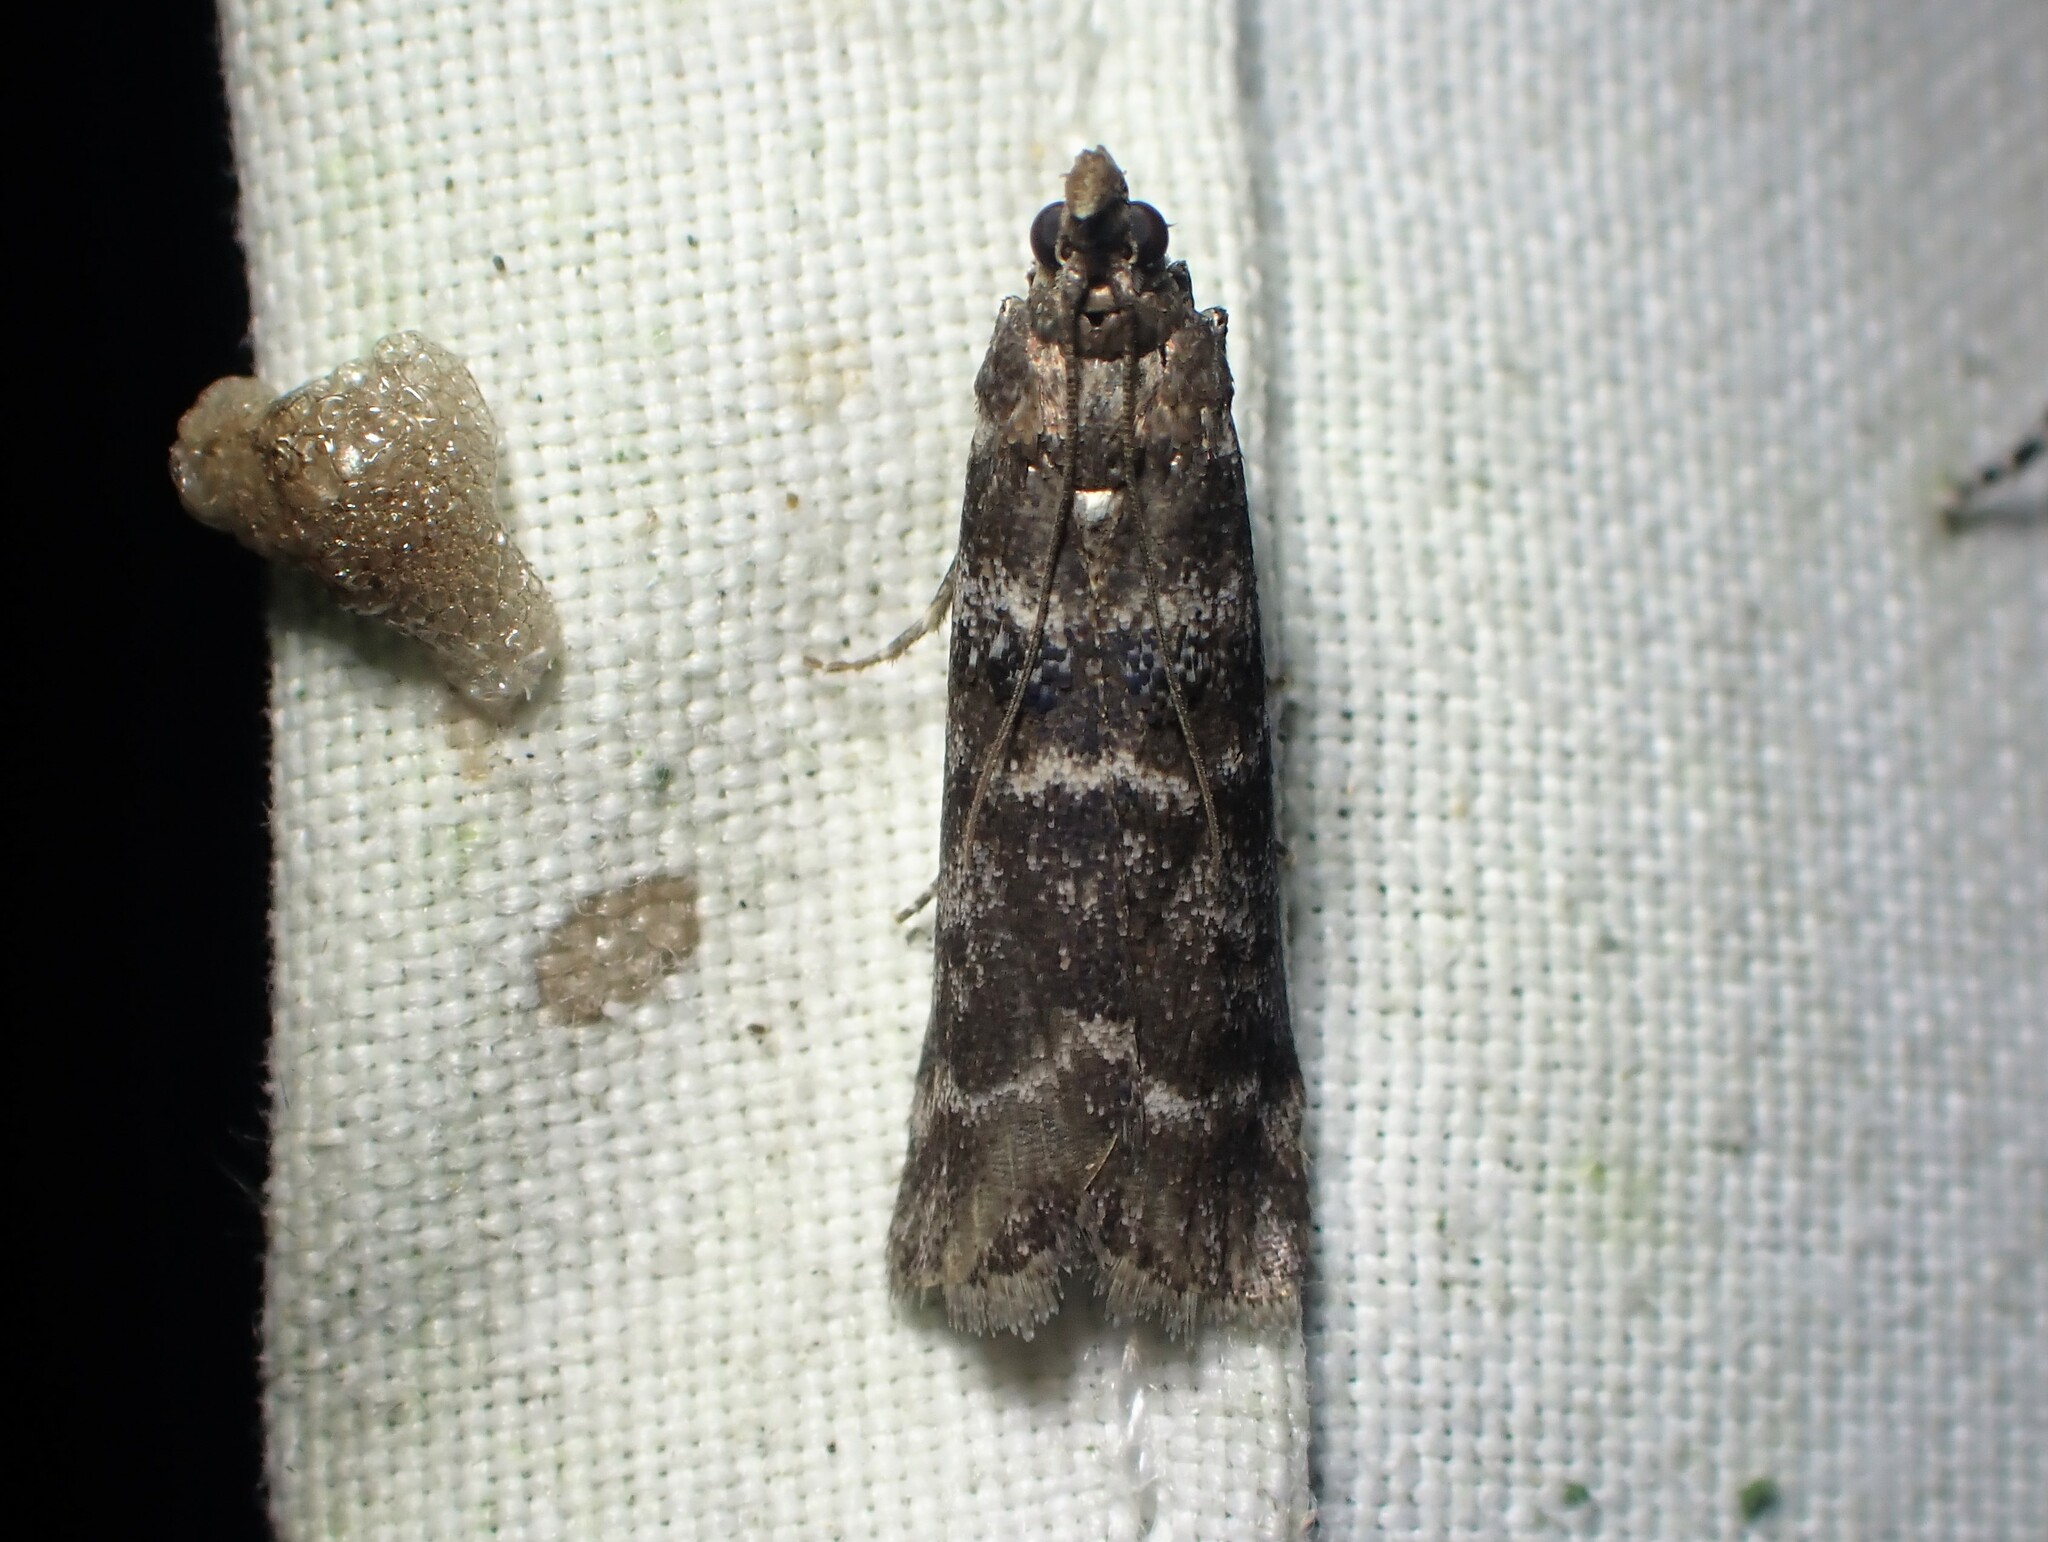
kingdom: Animalia
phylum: Arthropoda
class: Insecta
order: Lepidoptera
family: Pyralidae
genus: Ortholepis
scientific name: Ortholepis pasadamia
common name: Striped birch pyralid moth
